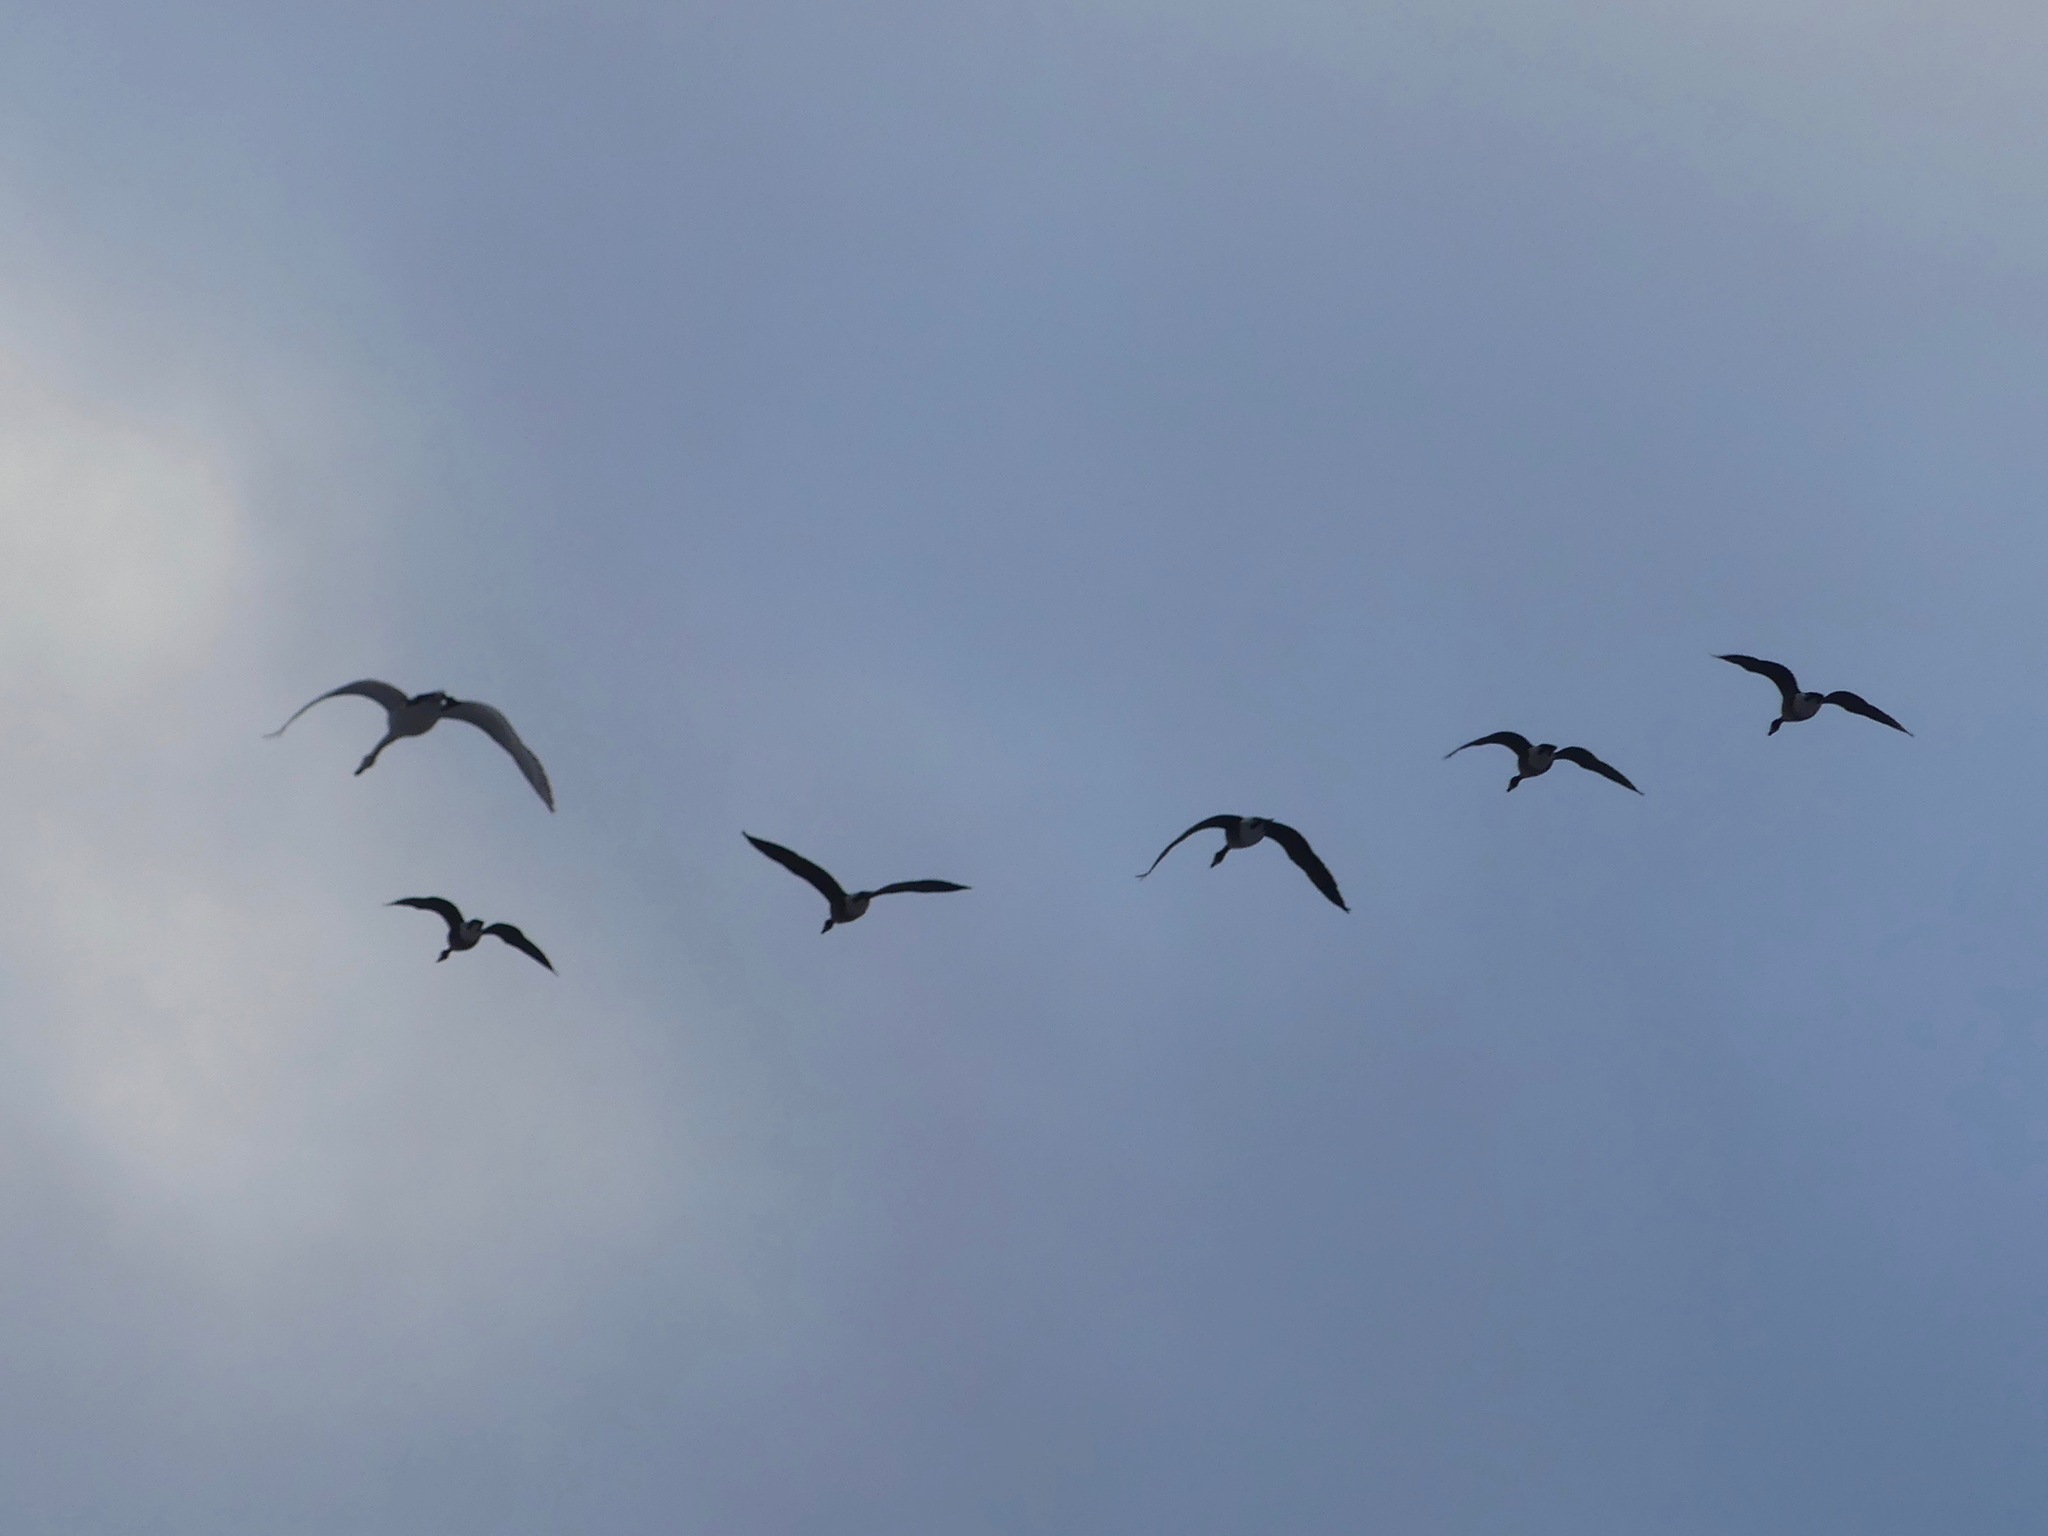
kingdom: Animalia
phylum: Chordata
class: Aves
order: Anseriformes
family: Anatidae
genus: Branta
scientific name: Branta canadensis
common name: Canada goose
